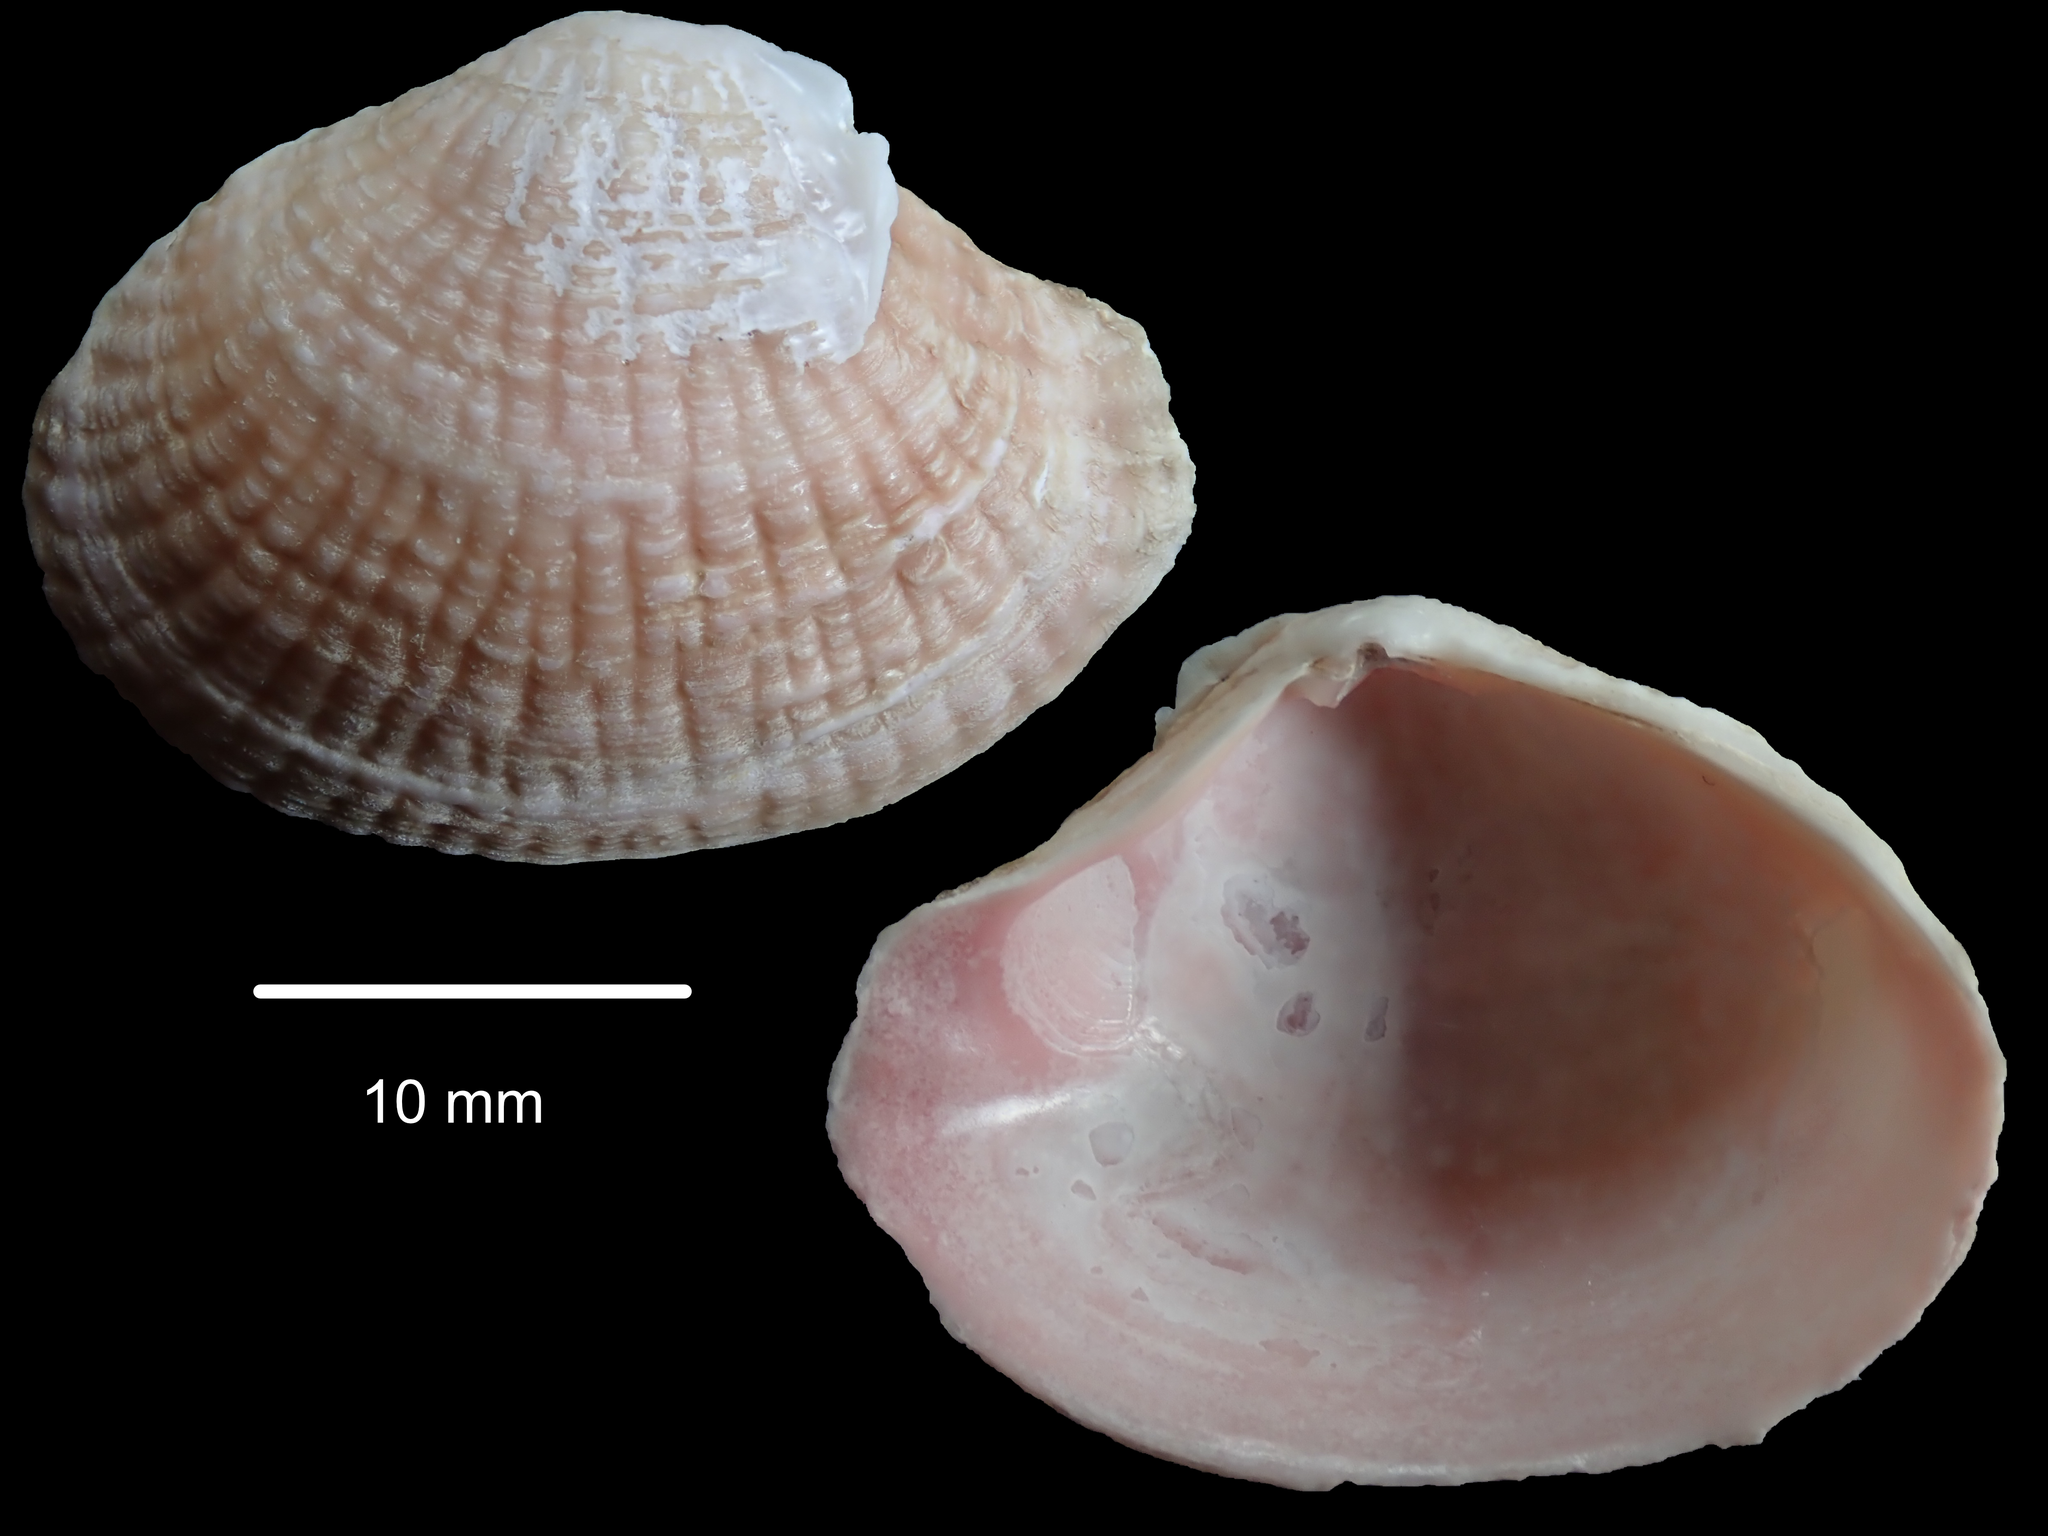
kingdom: Animalia
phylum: Mollusca
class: Bivalvia
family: Myochamidae
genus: Myochama
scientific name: Myochama anomioides
